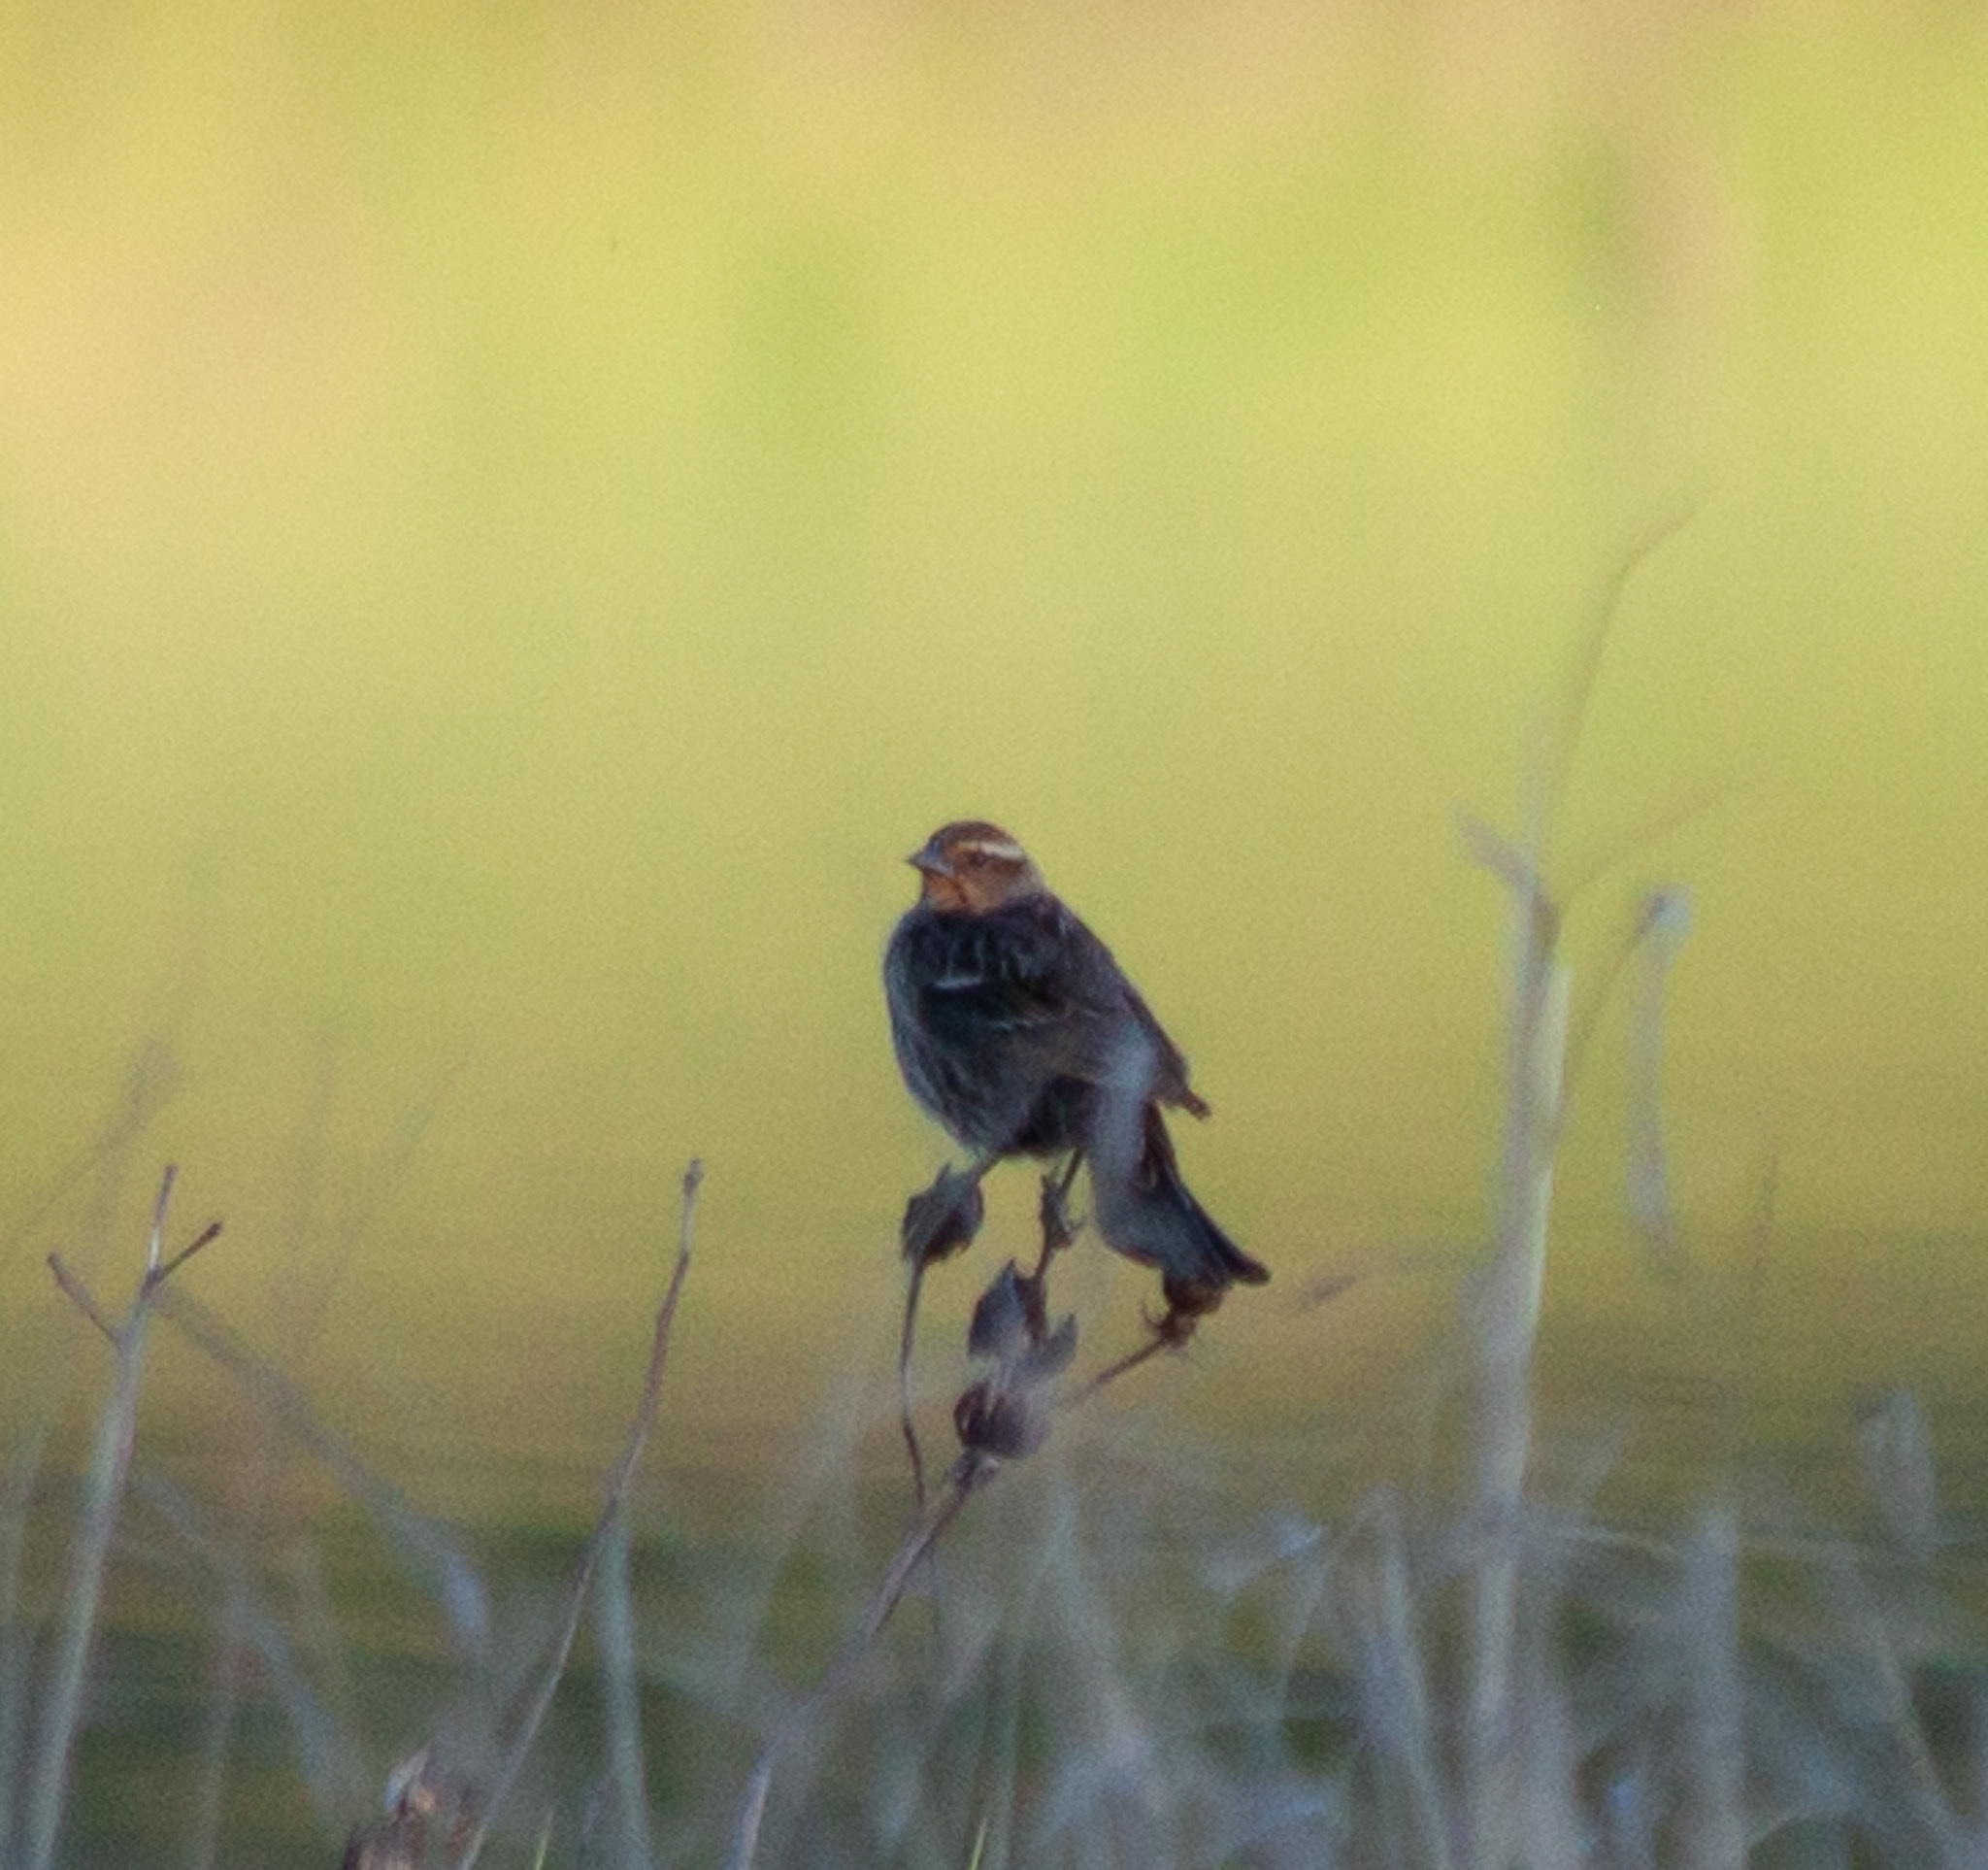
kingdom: Animalia
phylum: Chordata
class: Aves
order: Passeriformes
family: Icteridae
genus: Agelaius
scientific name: Agelaius phoeniceus
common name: Red-winged blackbird
